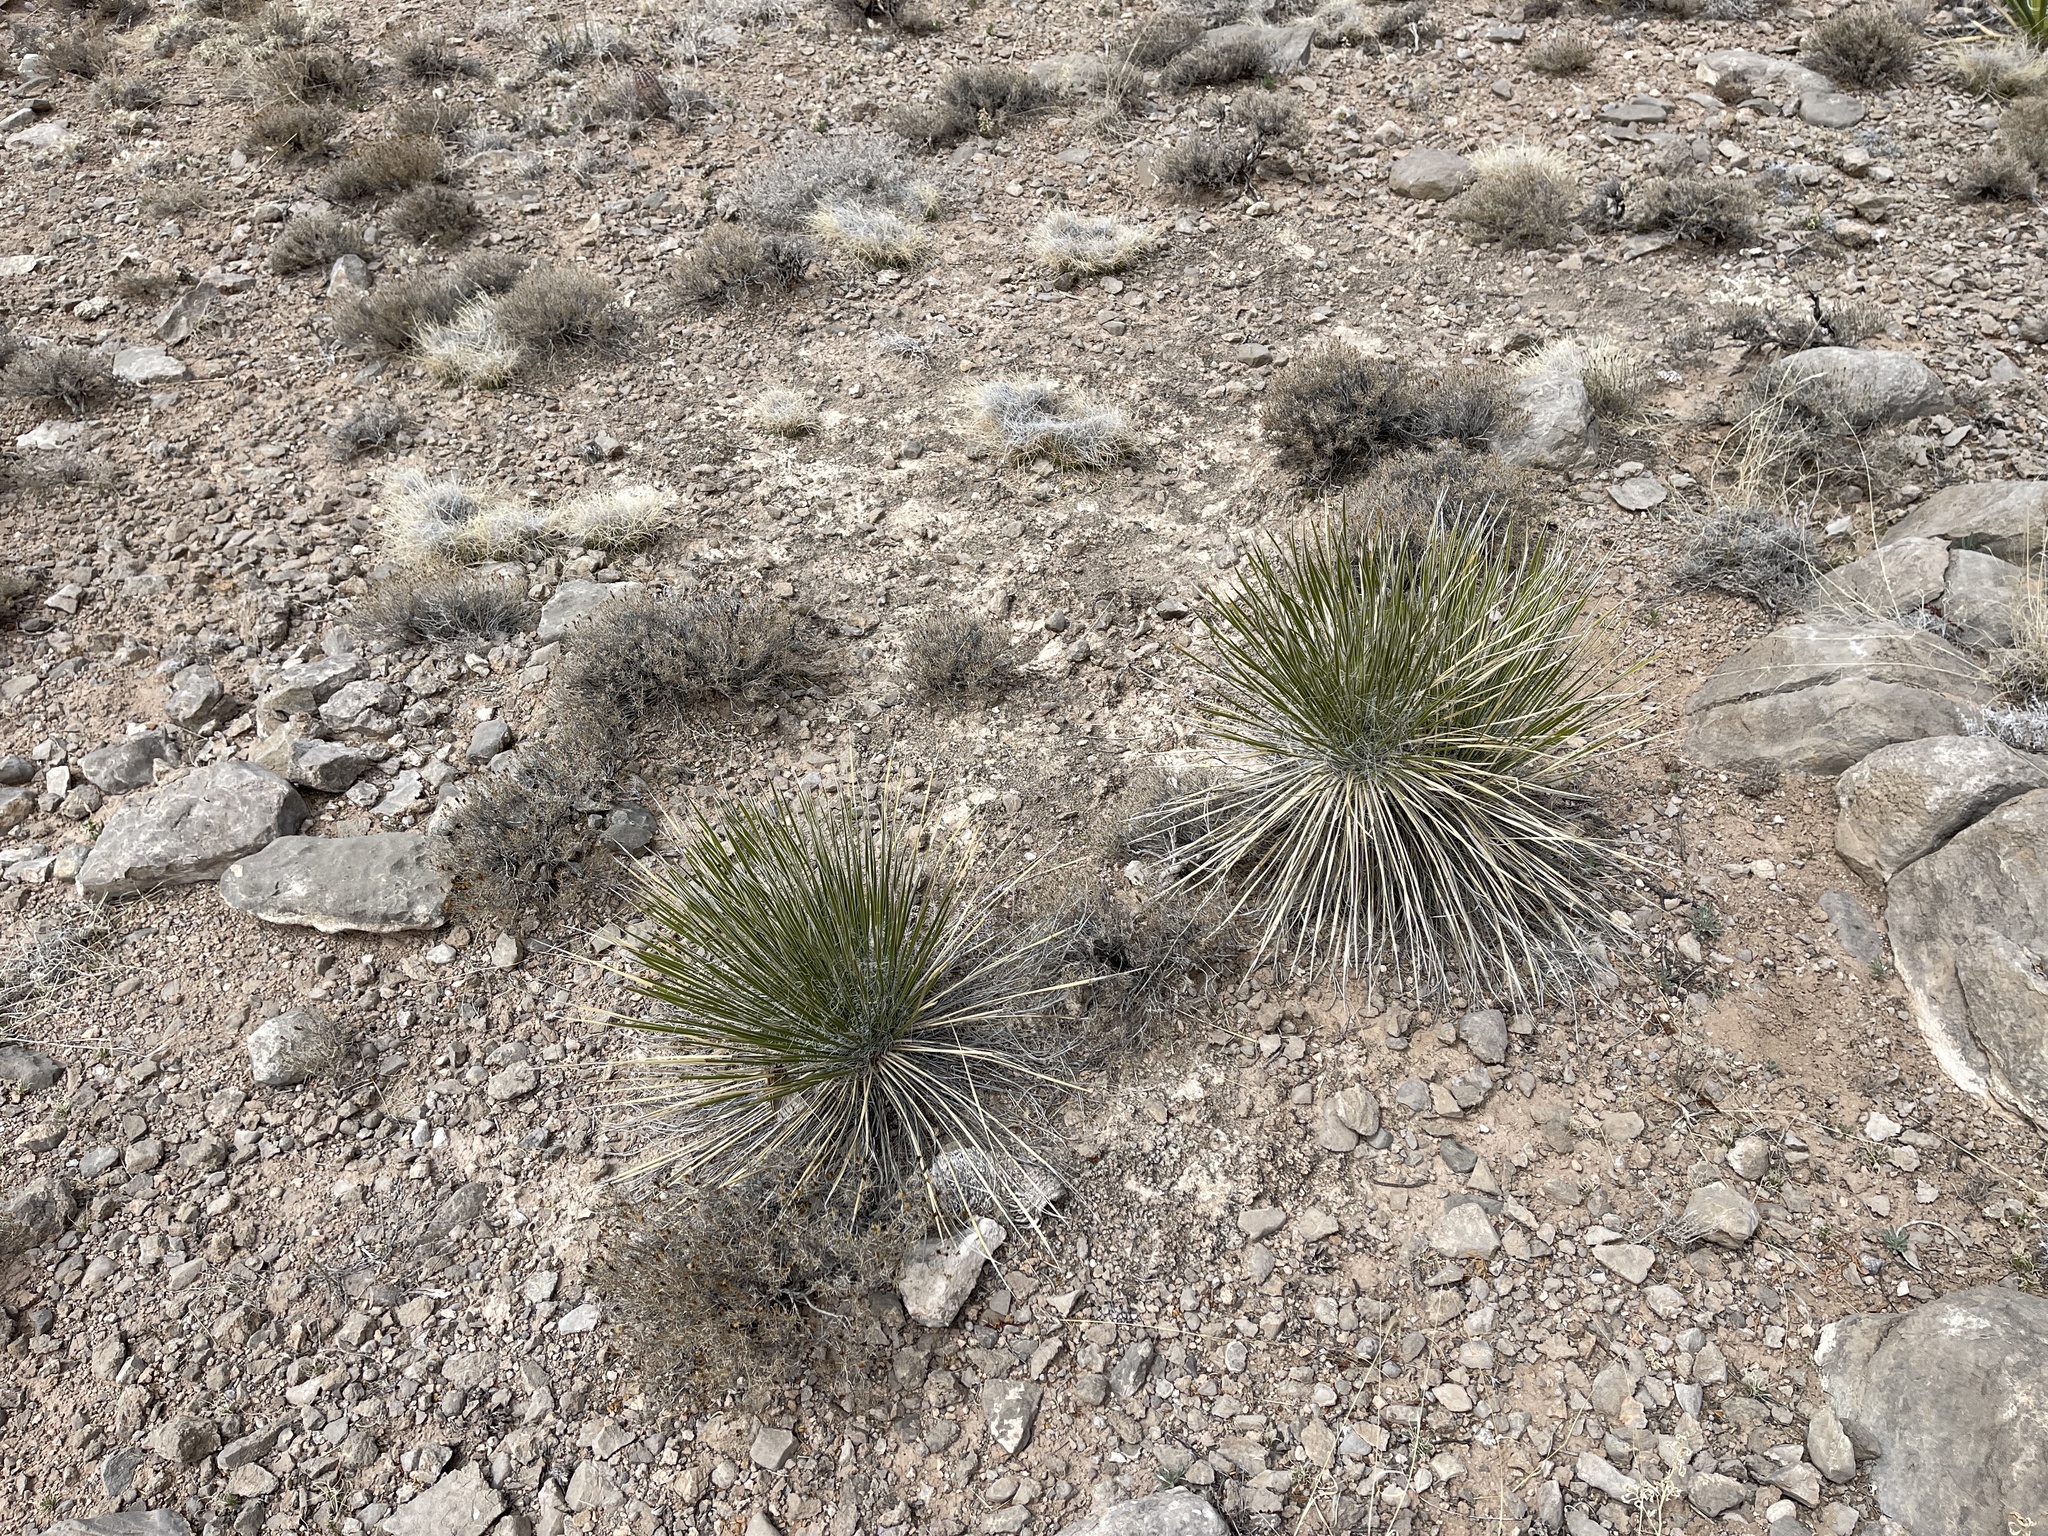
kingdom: Plantae
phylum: Tracheophyta
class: Liliopsida
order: Asparagales
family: Asparagaceae
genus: Yucca
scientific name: Yucca elata
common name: Palmella
